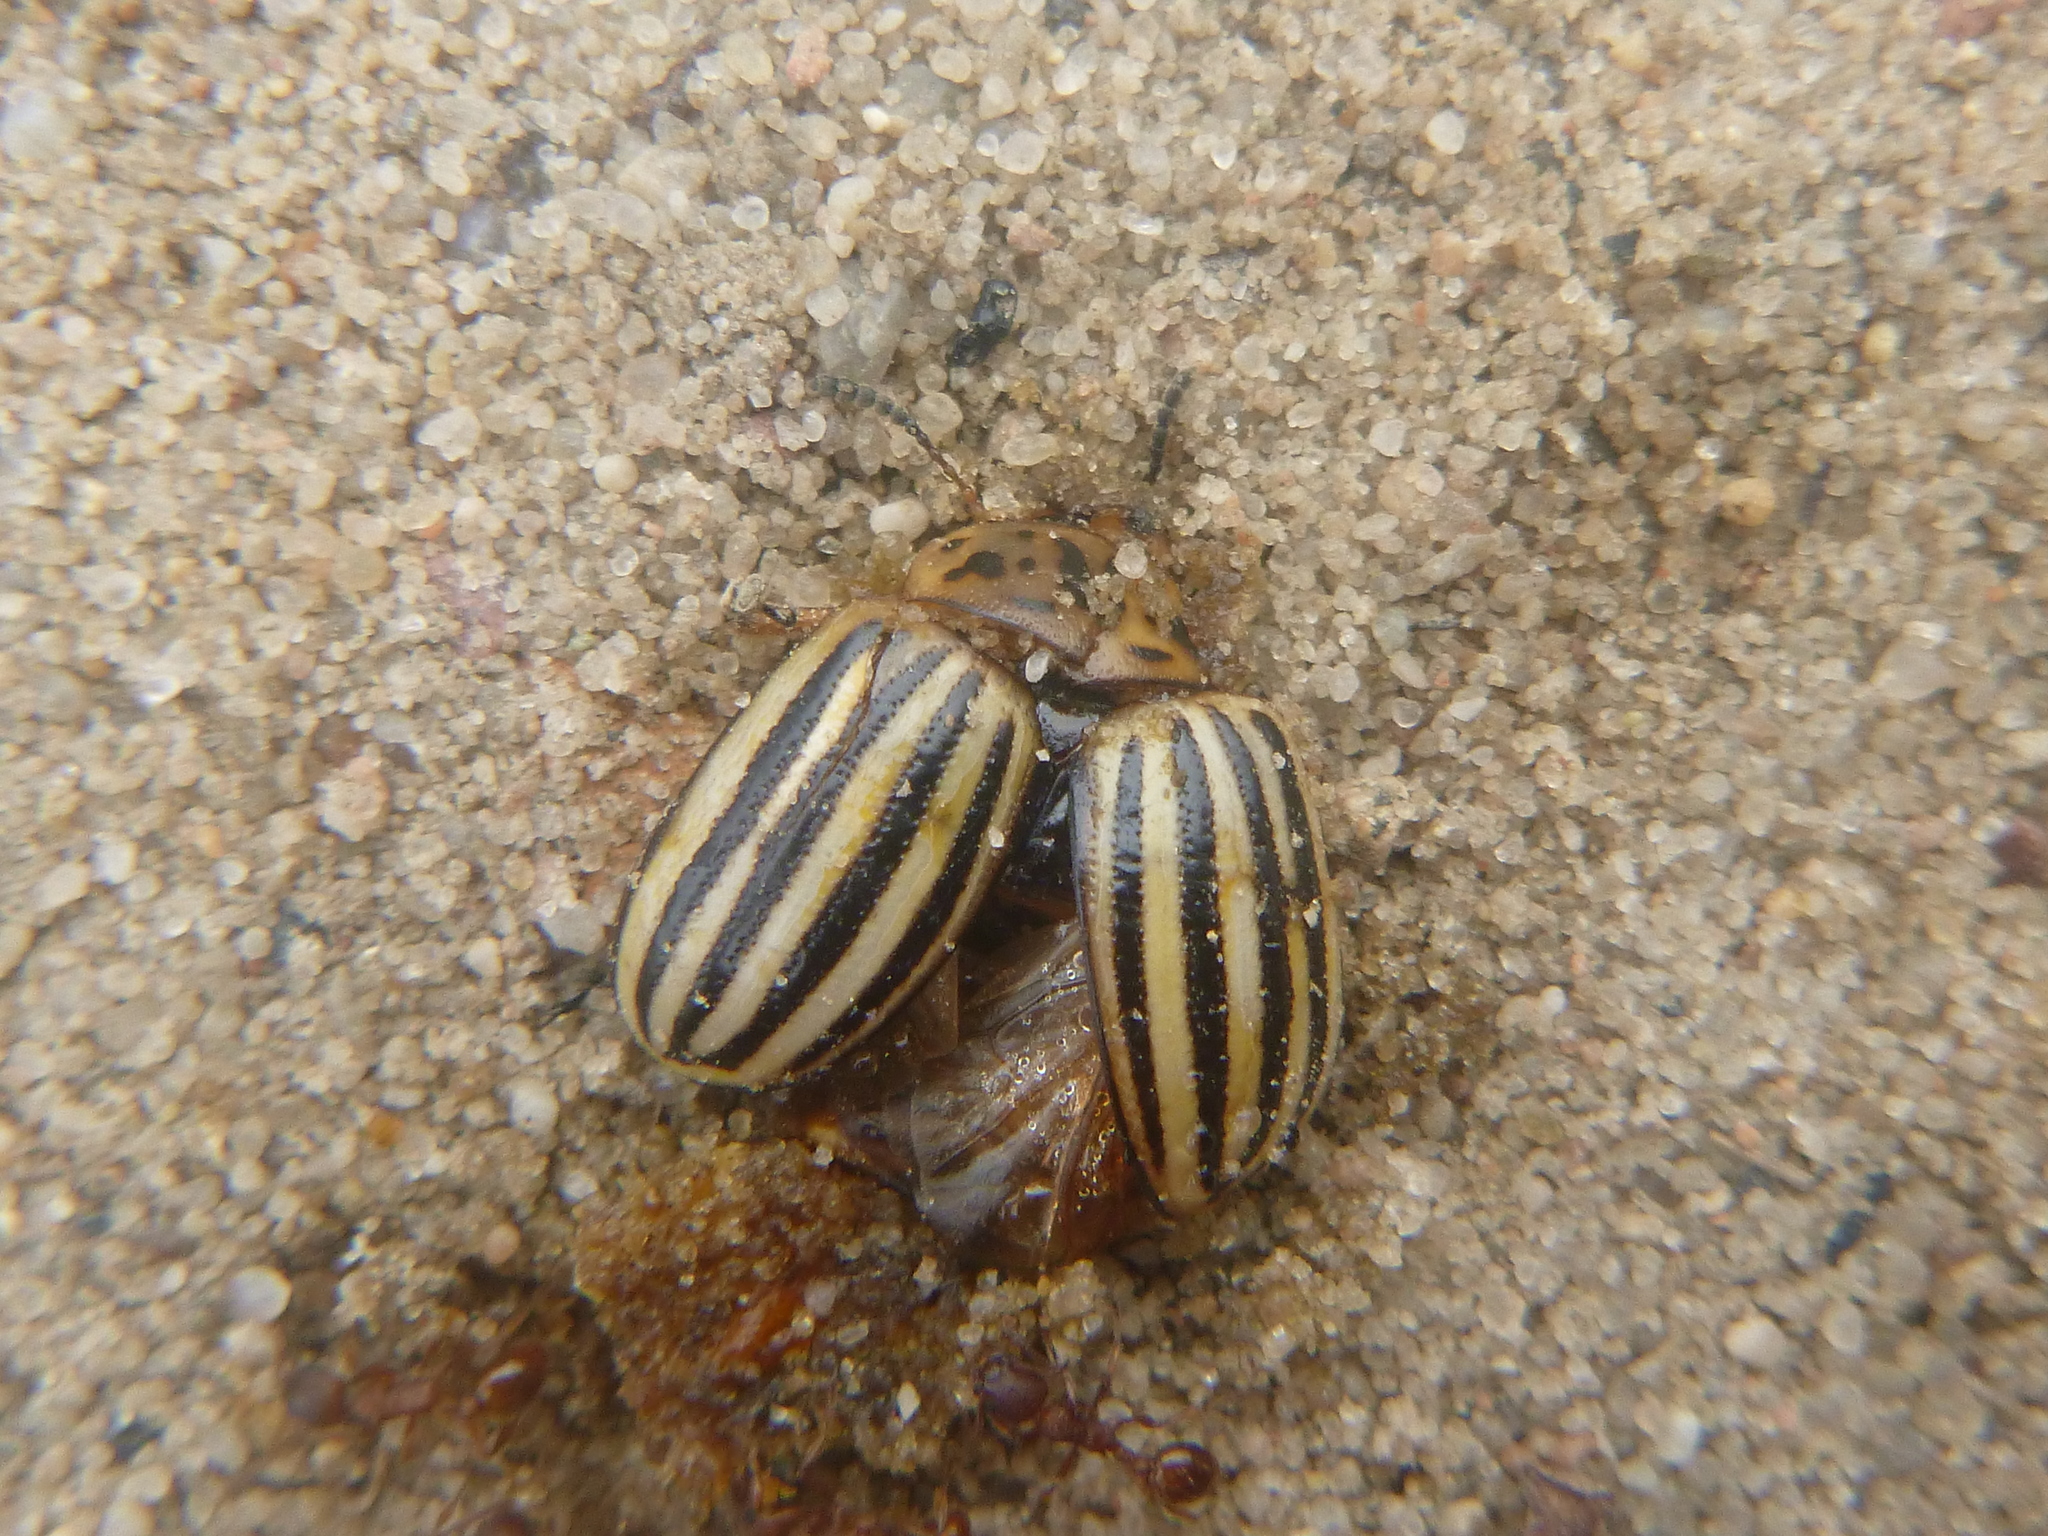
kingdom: Animalia
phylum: Arthropoda
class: Insecta
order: Coleoptera
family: Chrysomelidae
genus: Leptinotarsa
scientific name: Leptinotarsa decemlineata
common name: Colorado potato beetle
